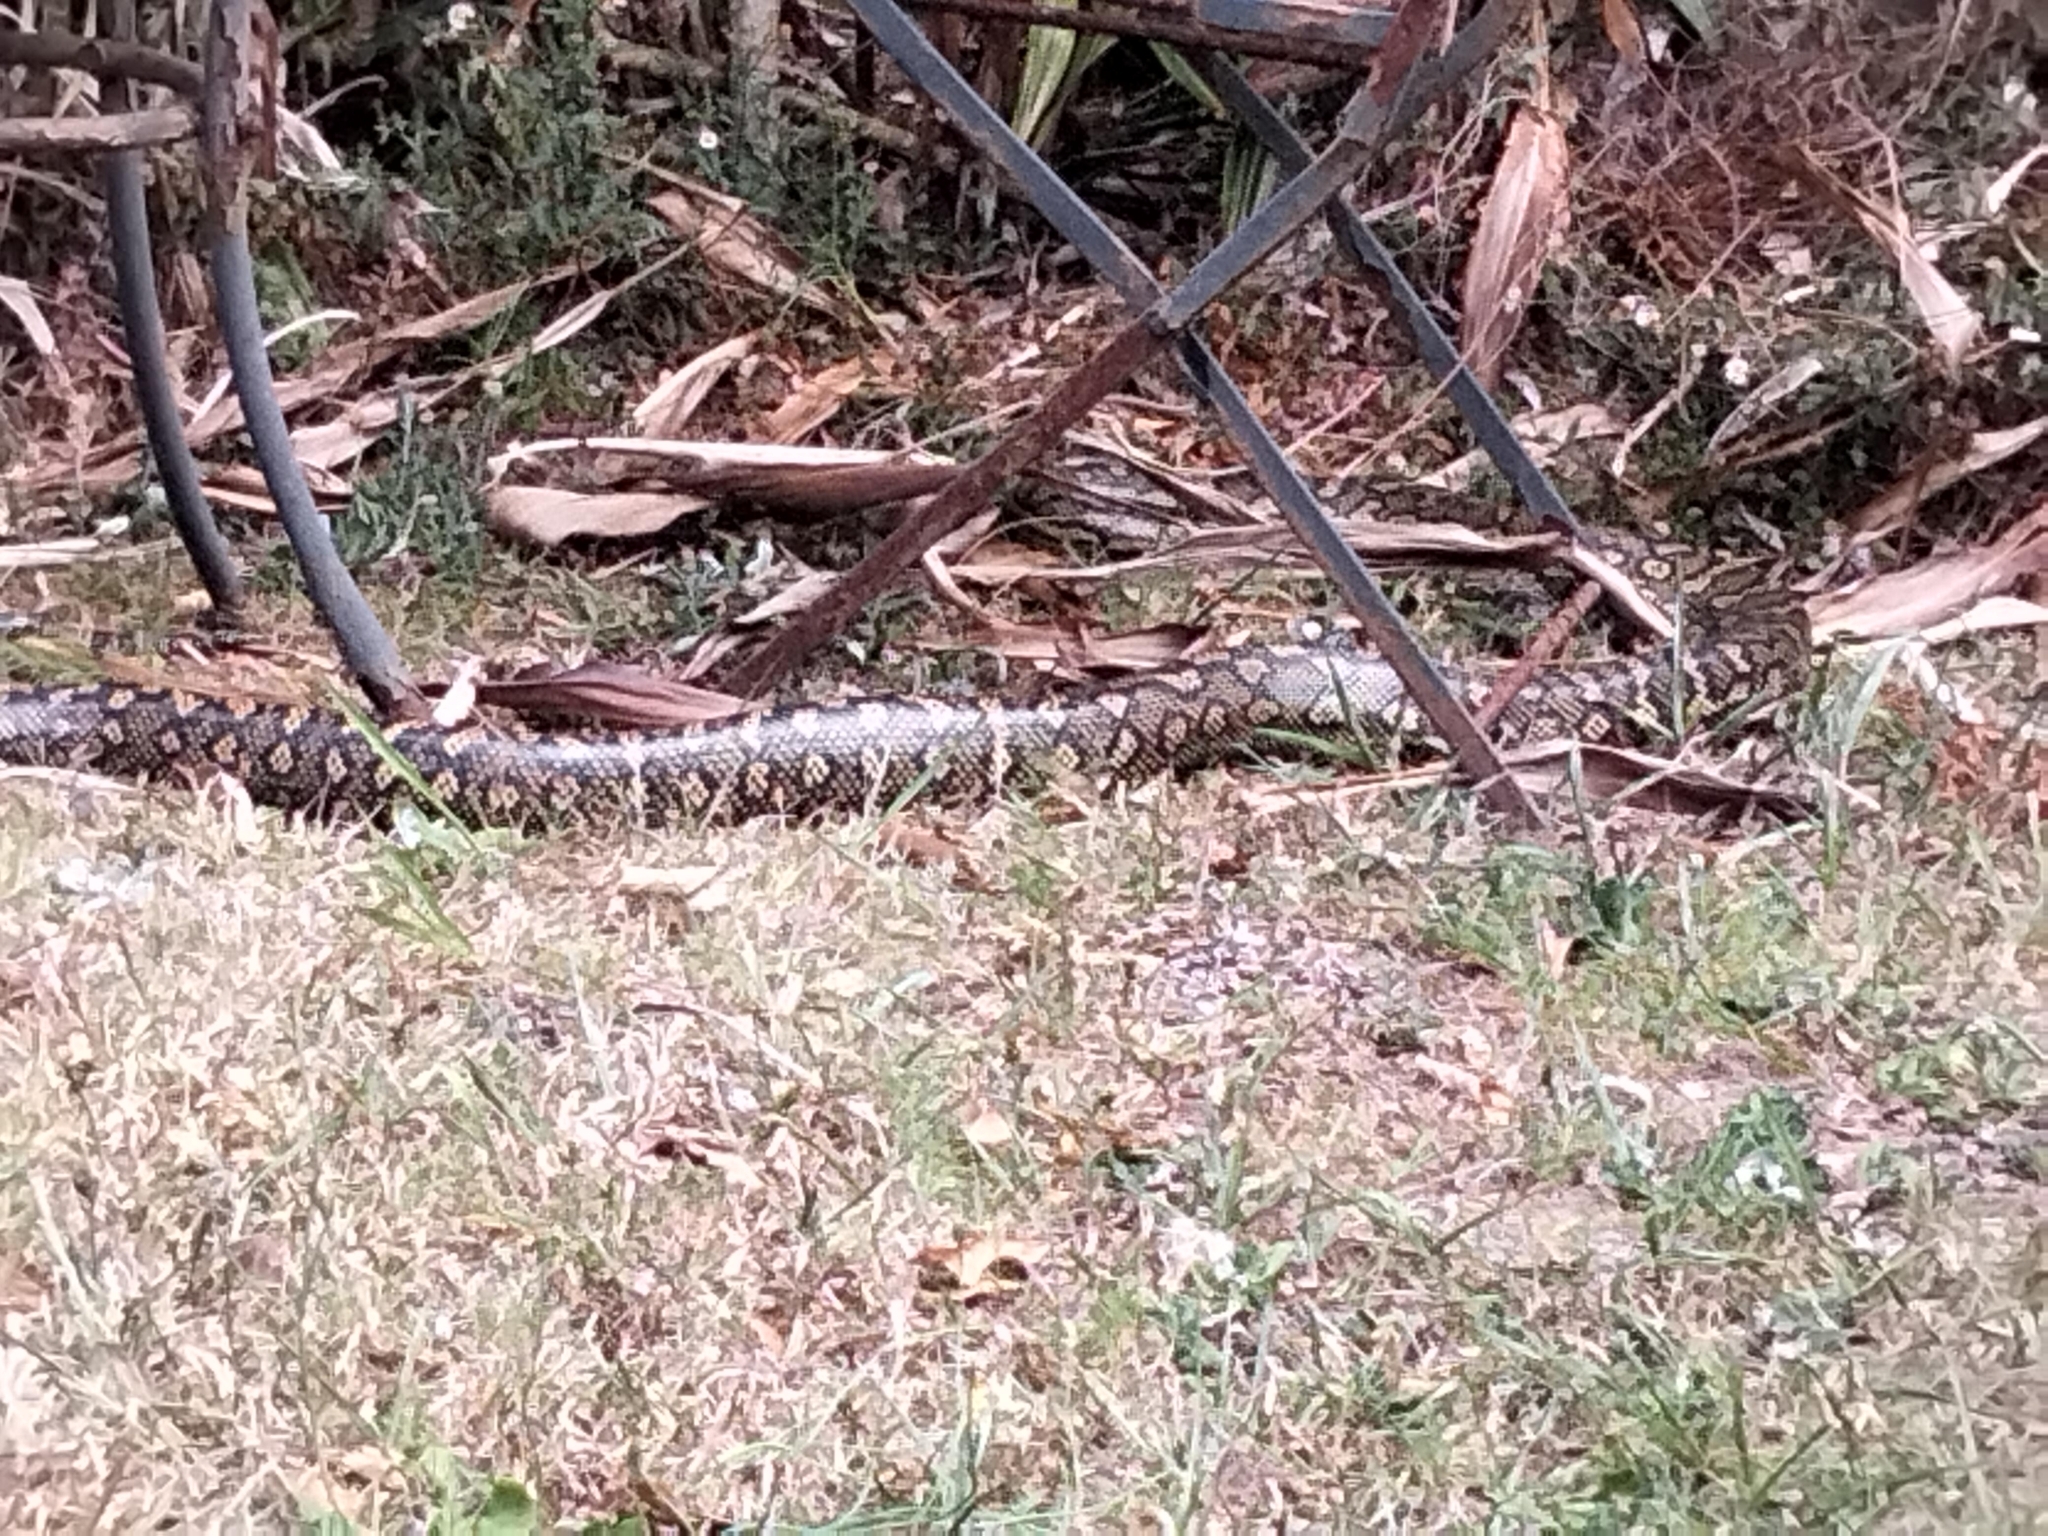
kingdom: Animalia
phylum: Chordata
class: Squamata
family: Pythonidae
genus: Morelia
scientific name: Morelia spilota
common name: Carpet python
